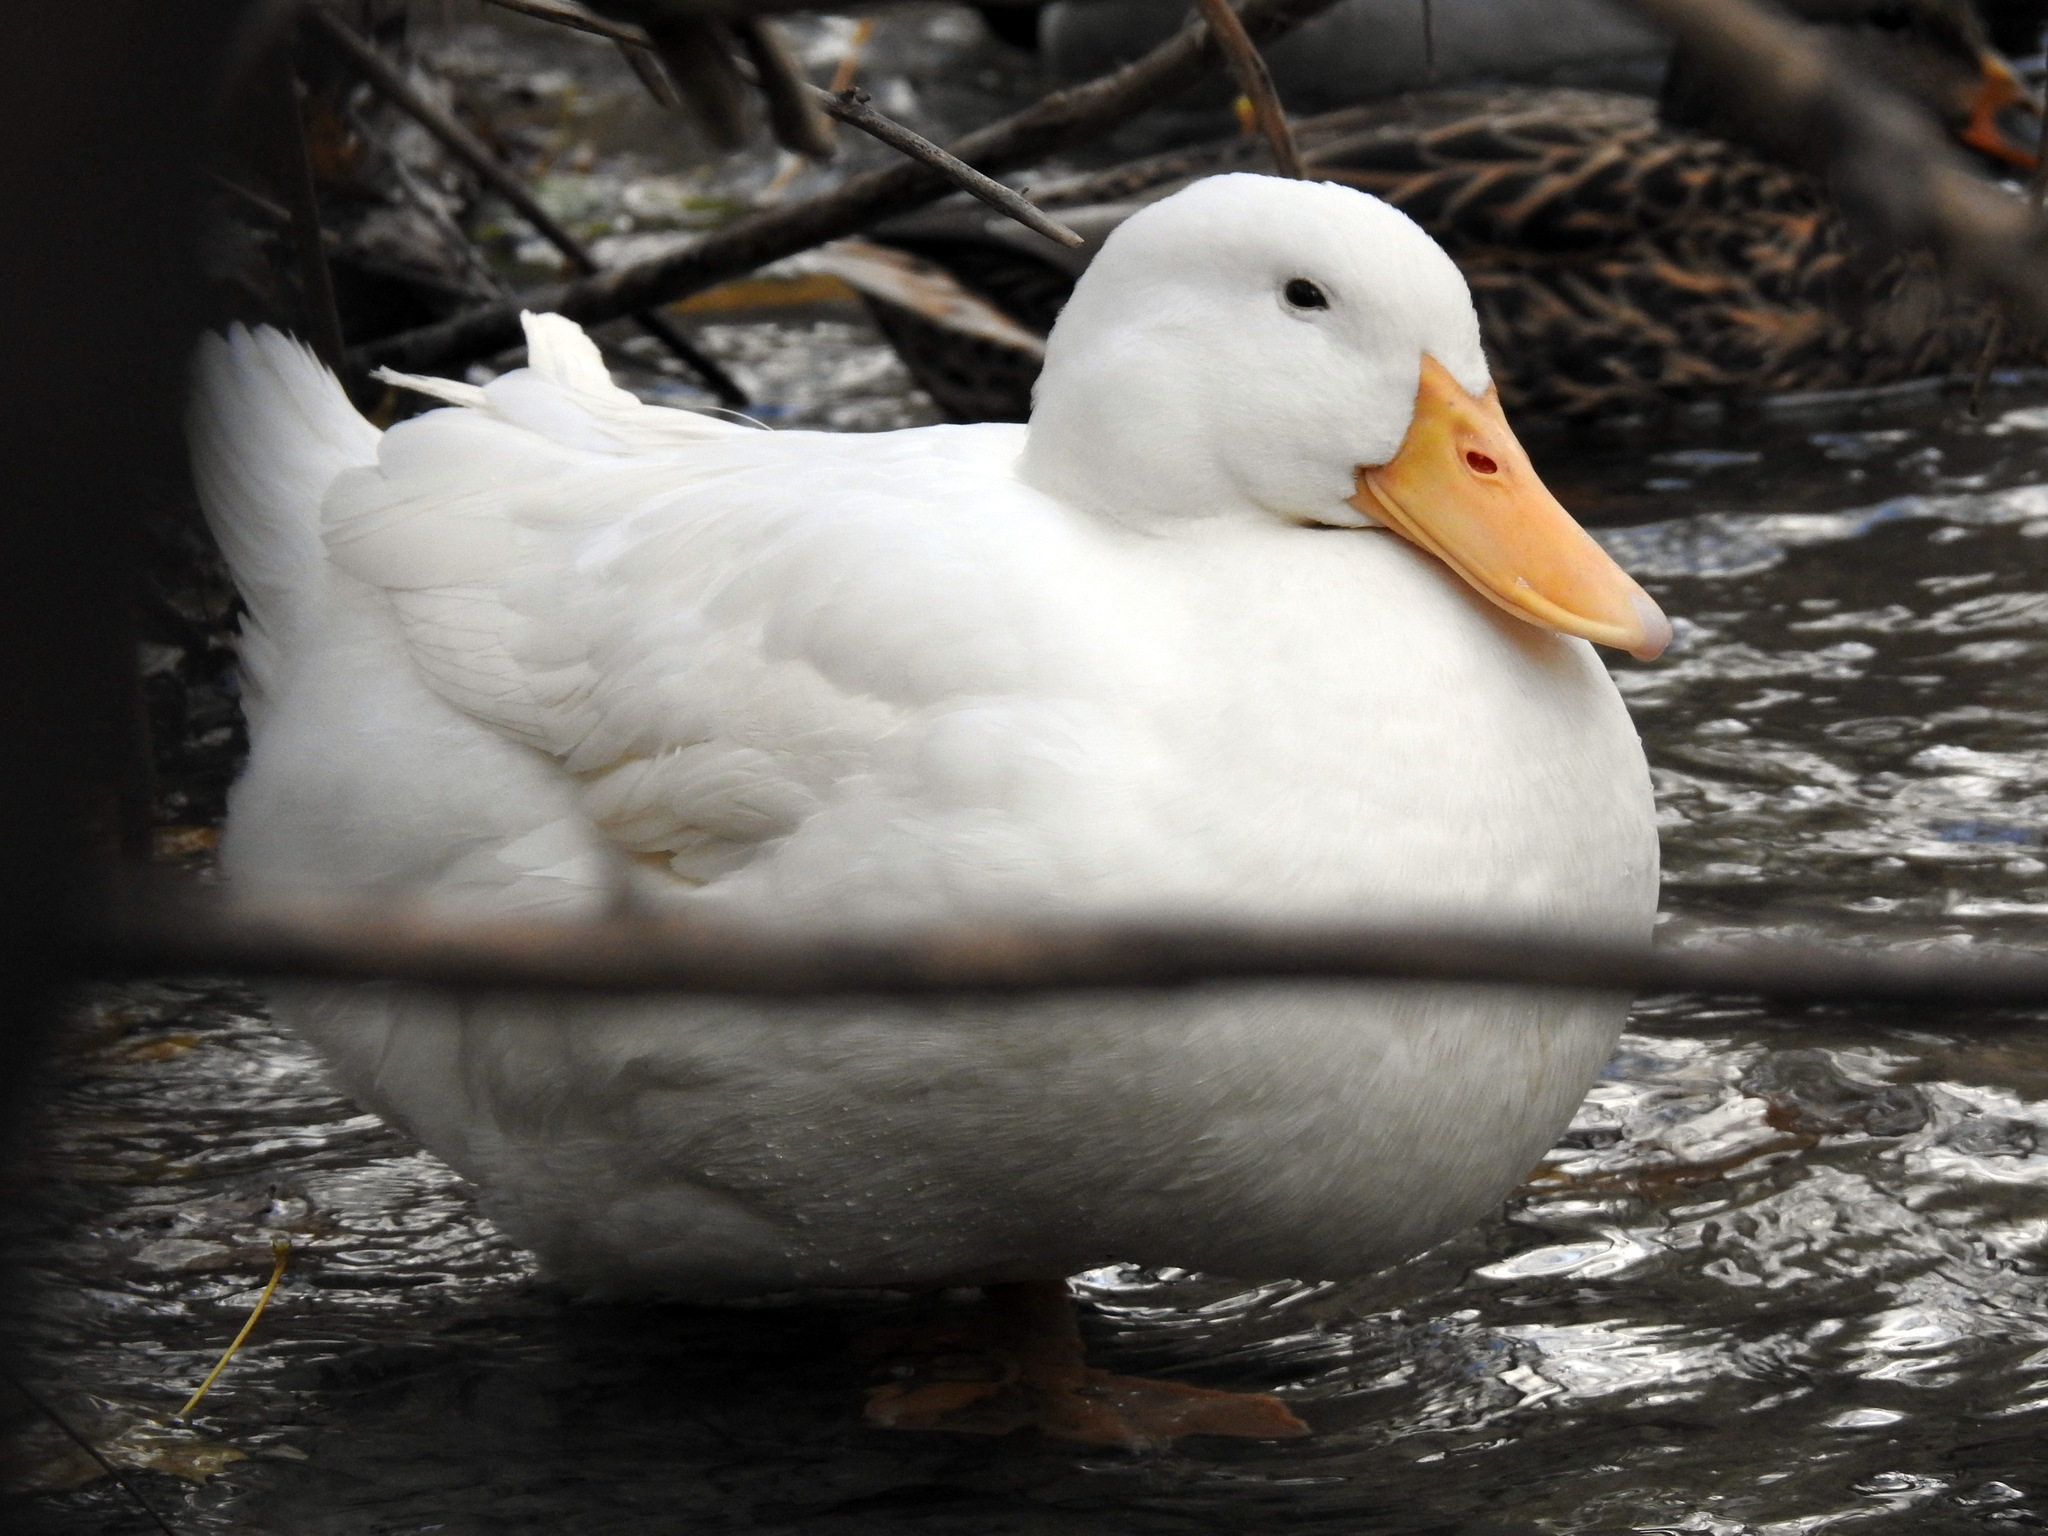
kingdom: Animalia
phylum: Chordata
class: Aves
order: Anseriformes
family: Anatidae
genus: Anas
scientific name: Anas platyrhynchos
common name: Mallard
